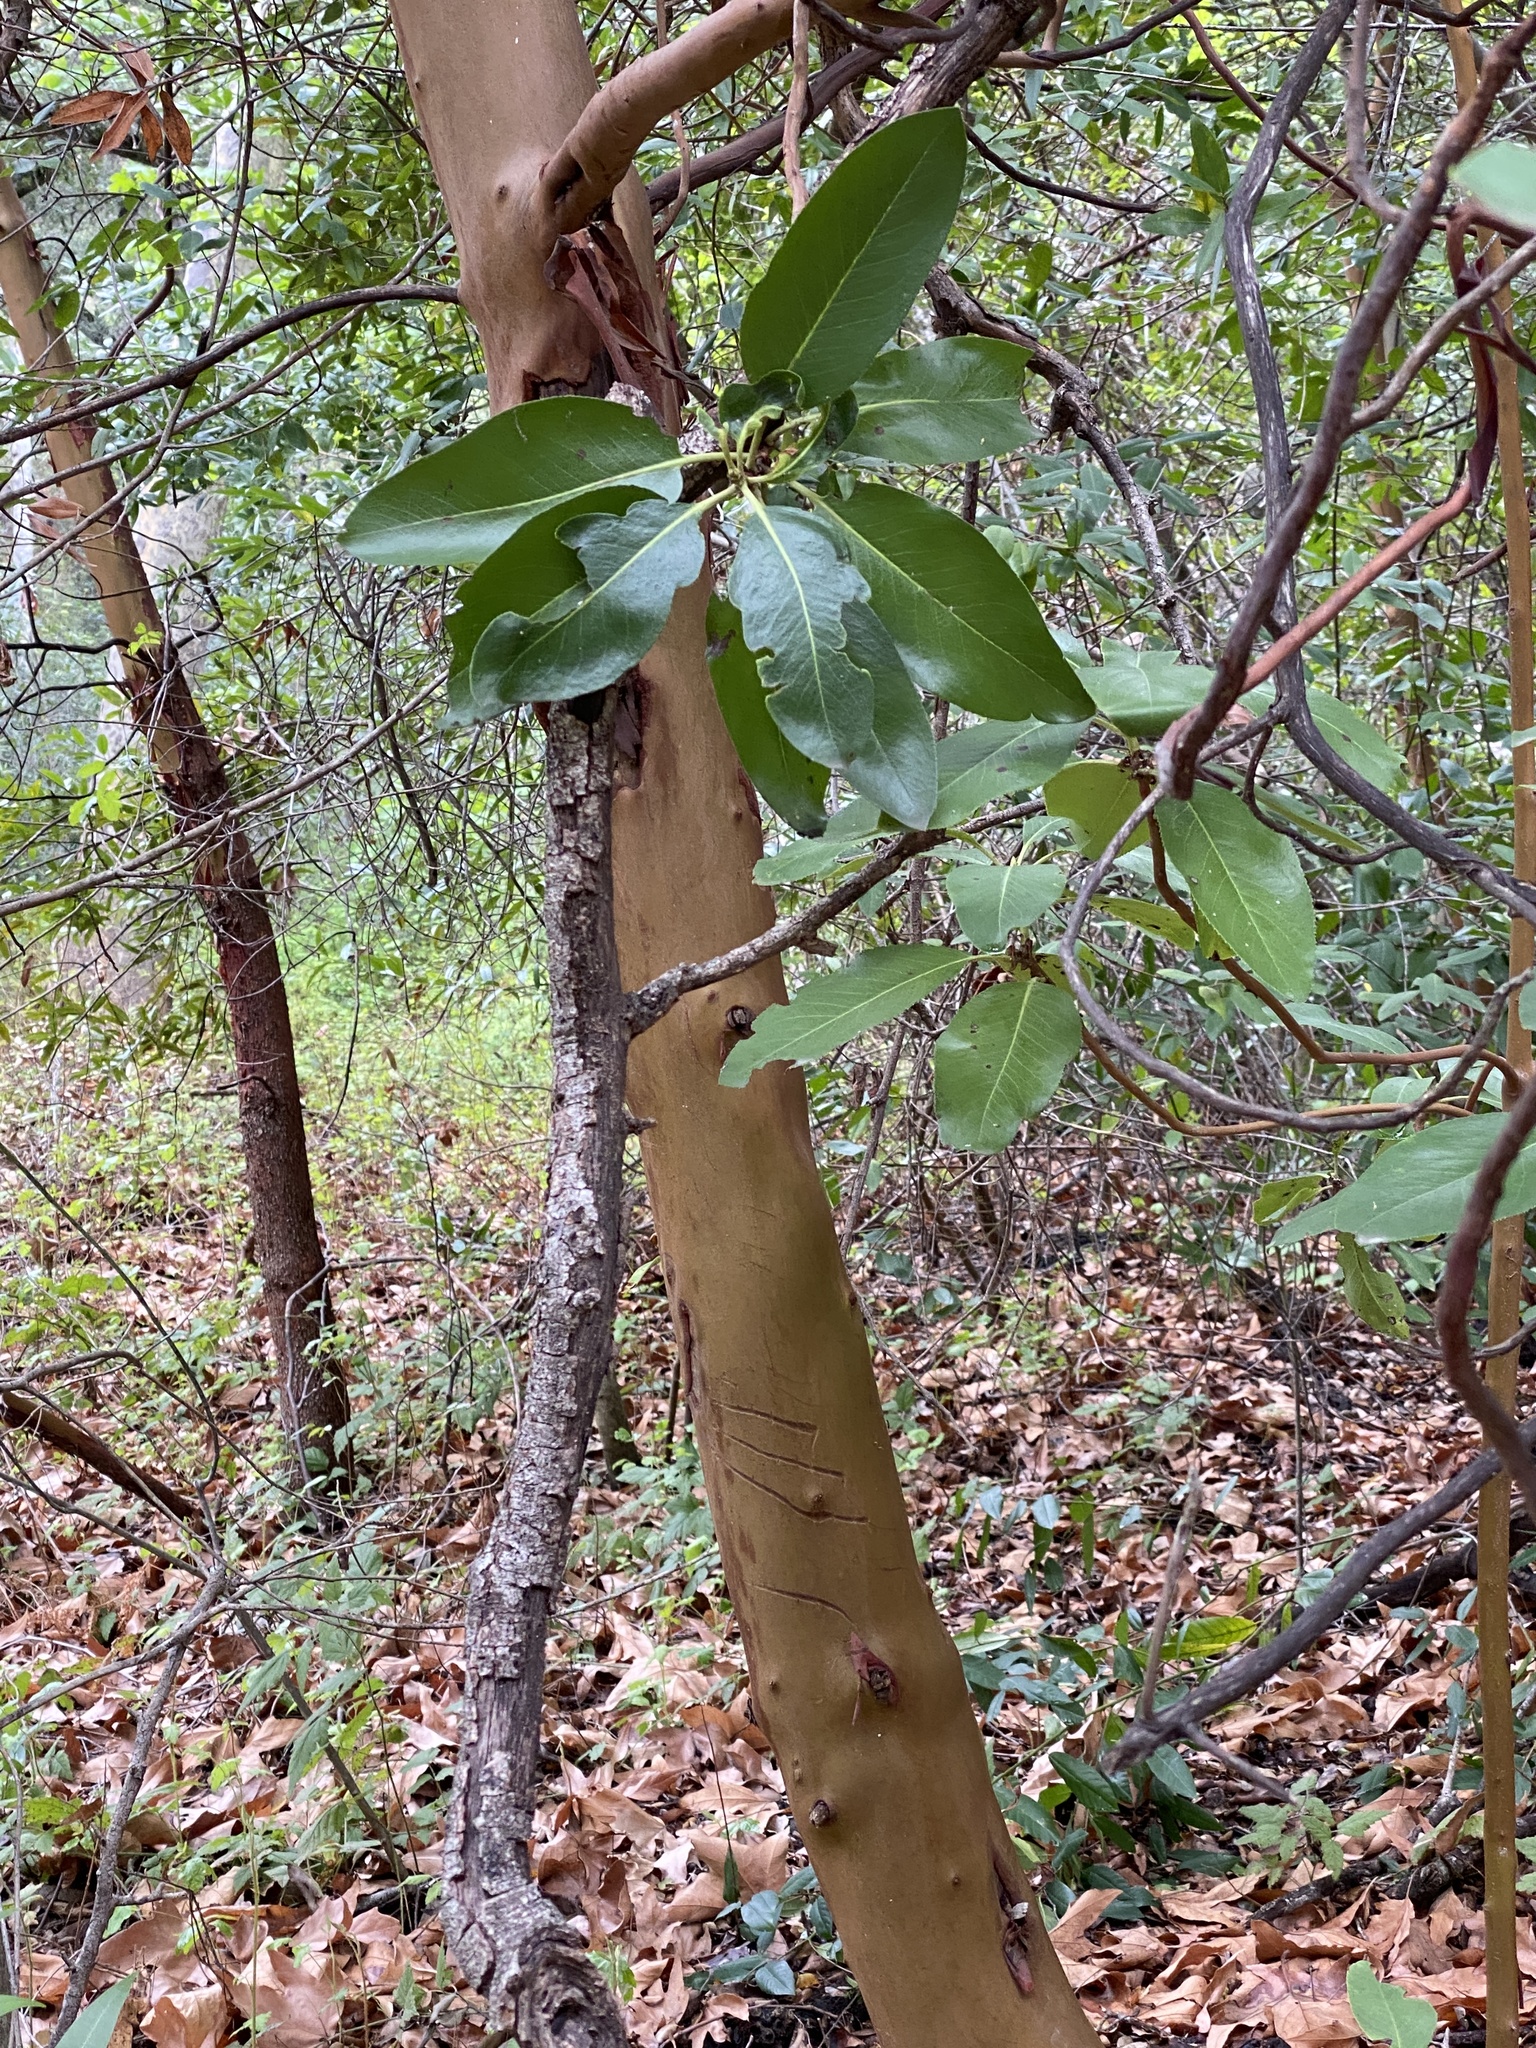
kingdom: Plantae
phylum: Tracheophyta
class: Magnoliopsida
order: Ericales
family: Ericaceae
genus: Arbutus
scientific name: Arbutus menziesii
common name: Pacific madrone
